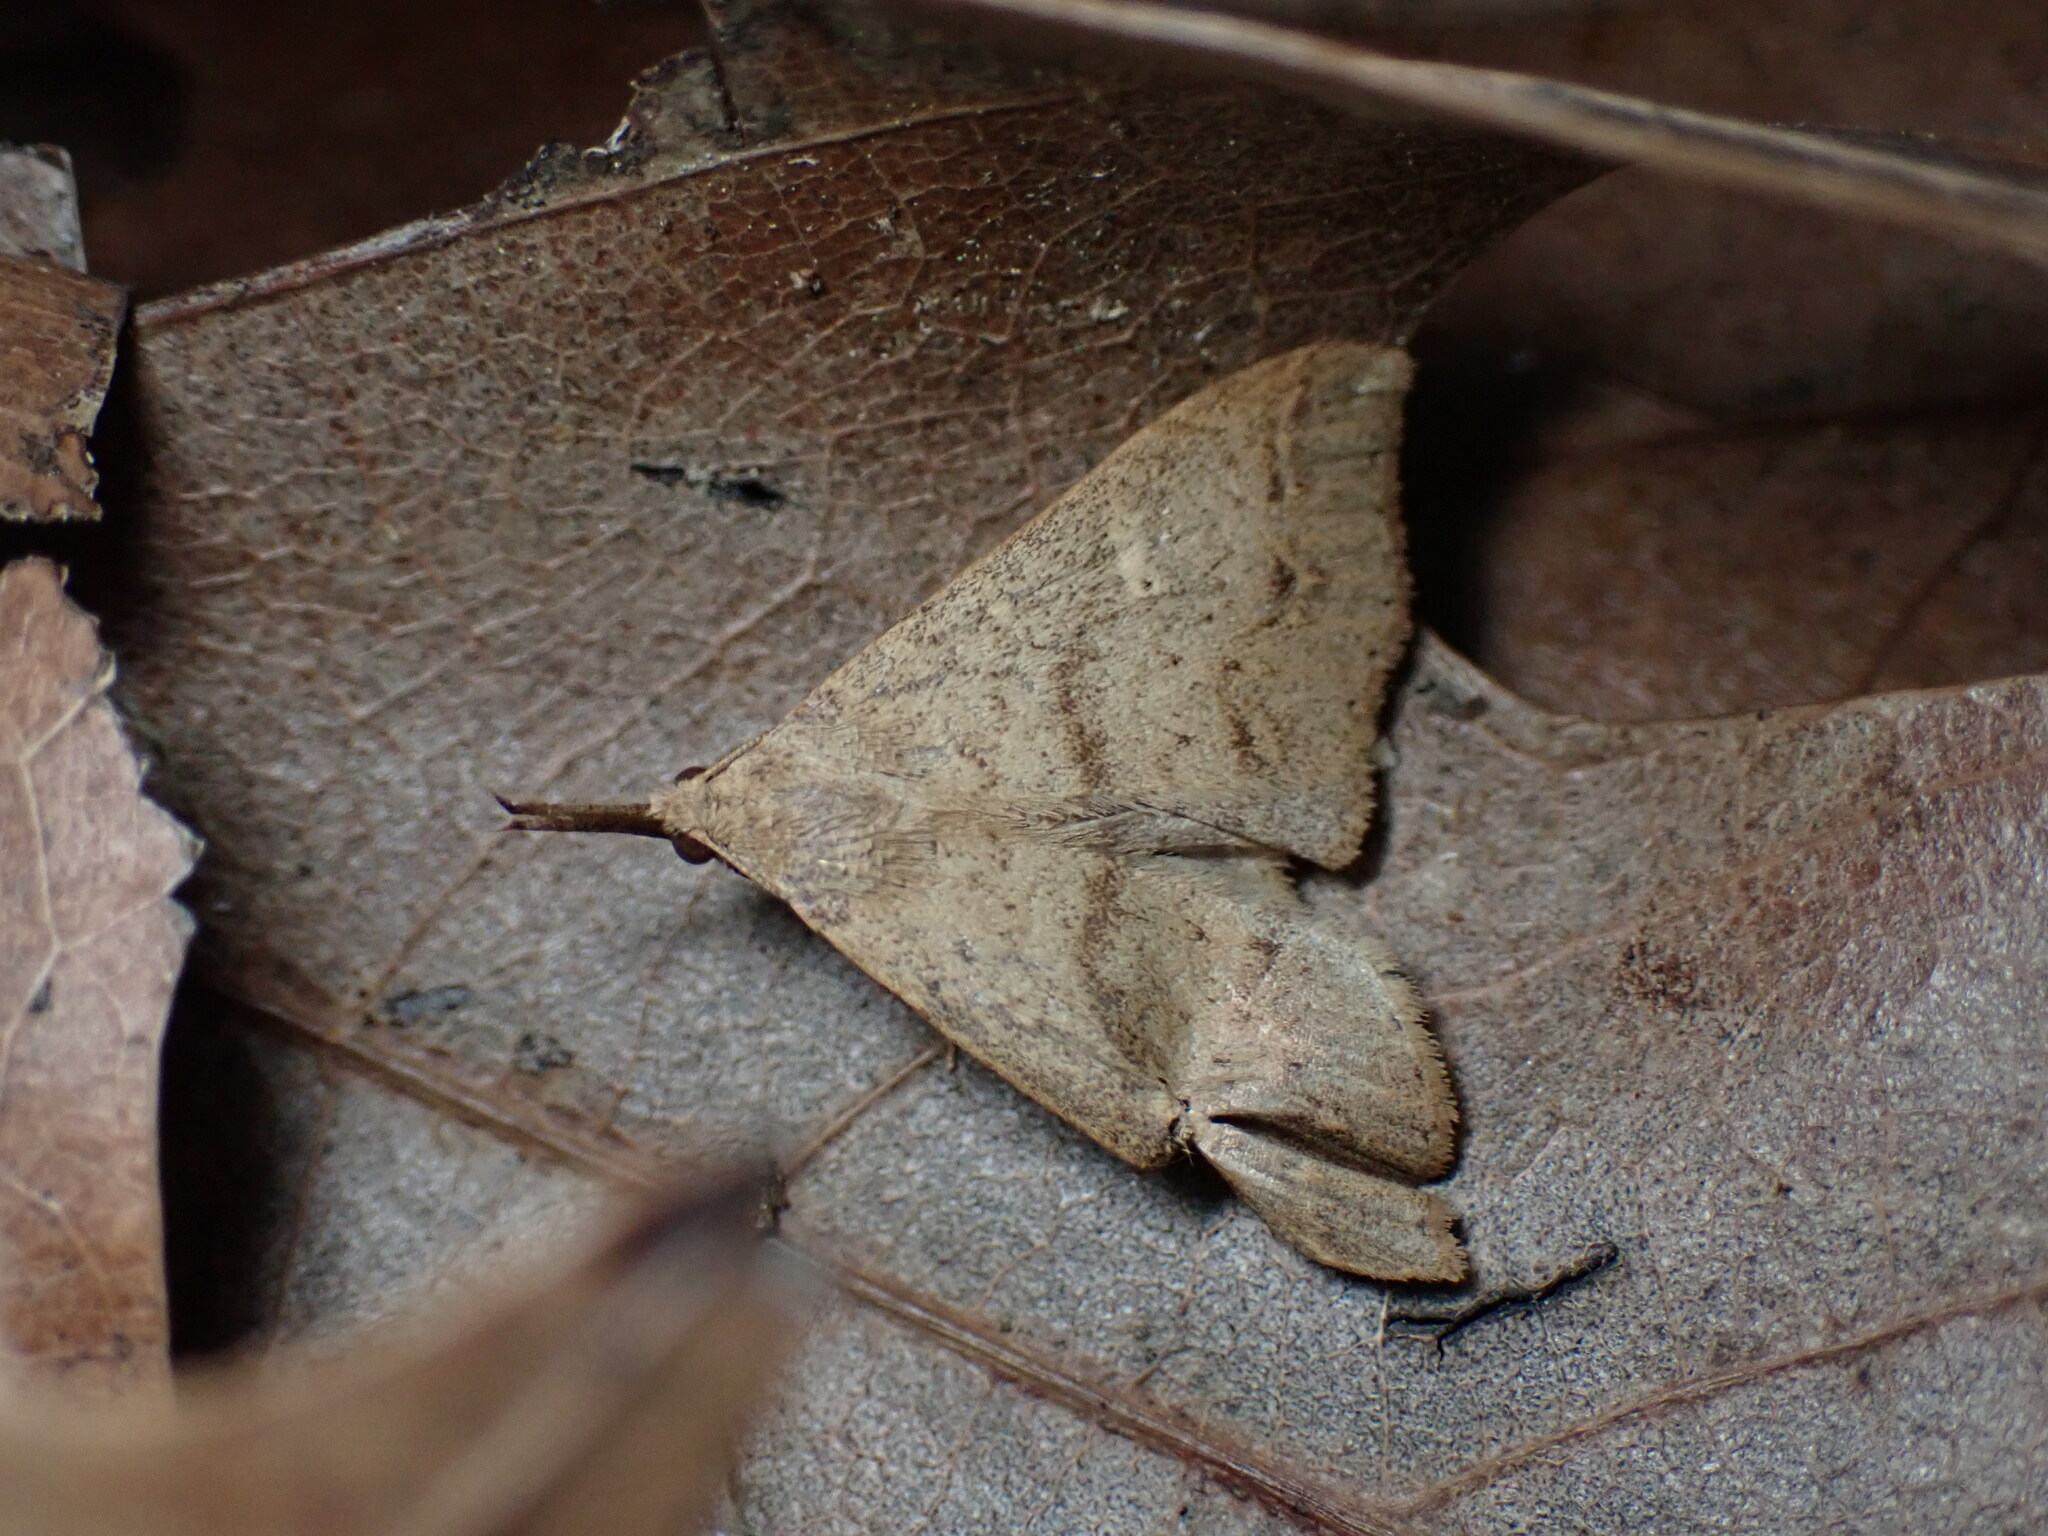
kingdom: Animalia
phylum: Arthropoda
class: Insecta
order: Lepidoptera
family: Erebidae
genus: Renia
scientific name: Renia discoloralis
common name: Discolored renia moth
